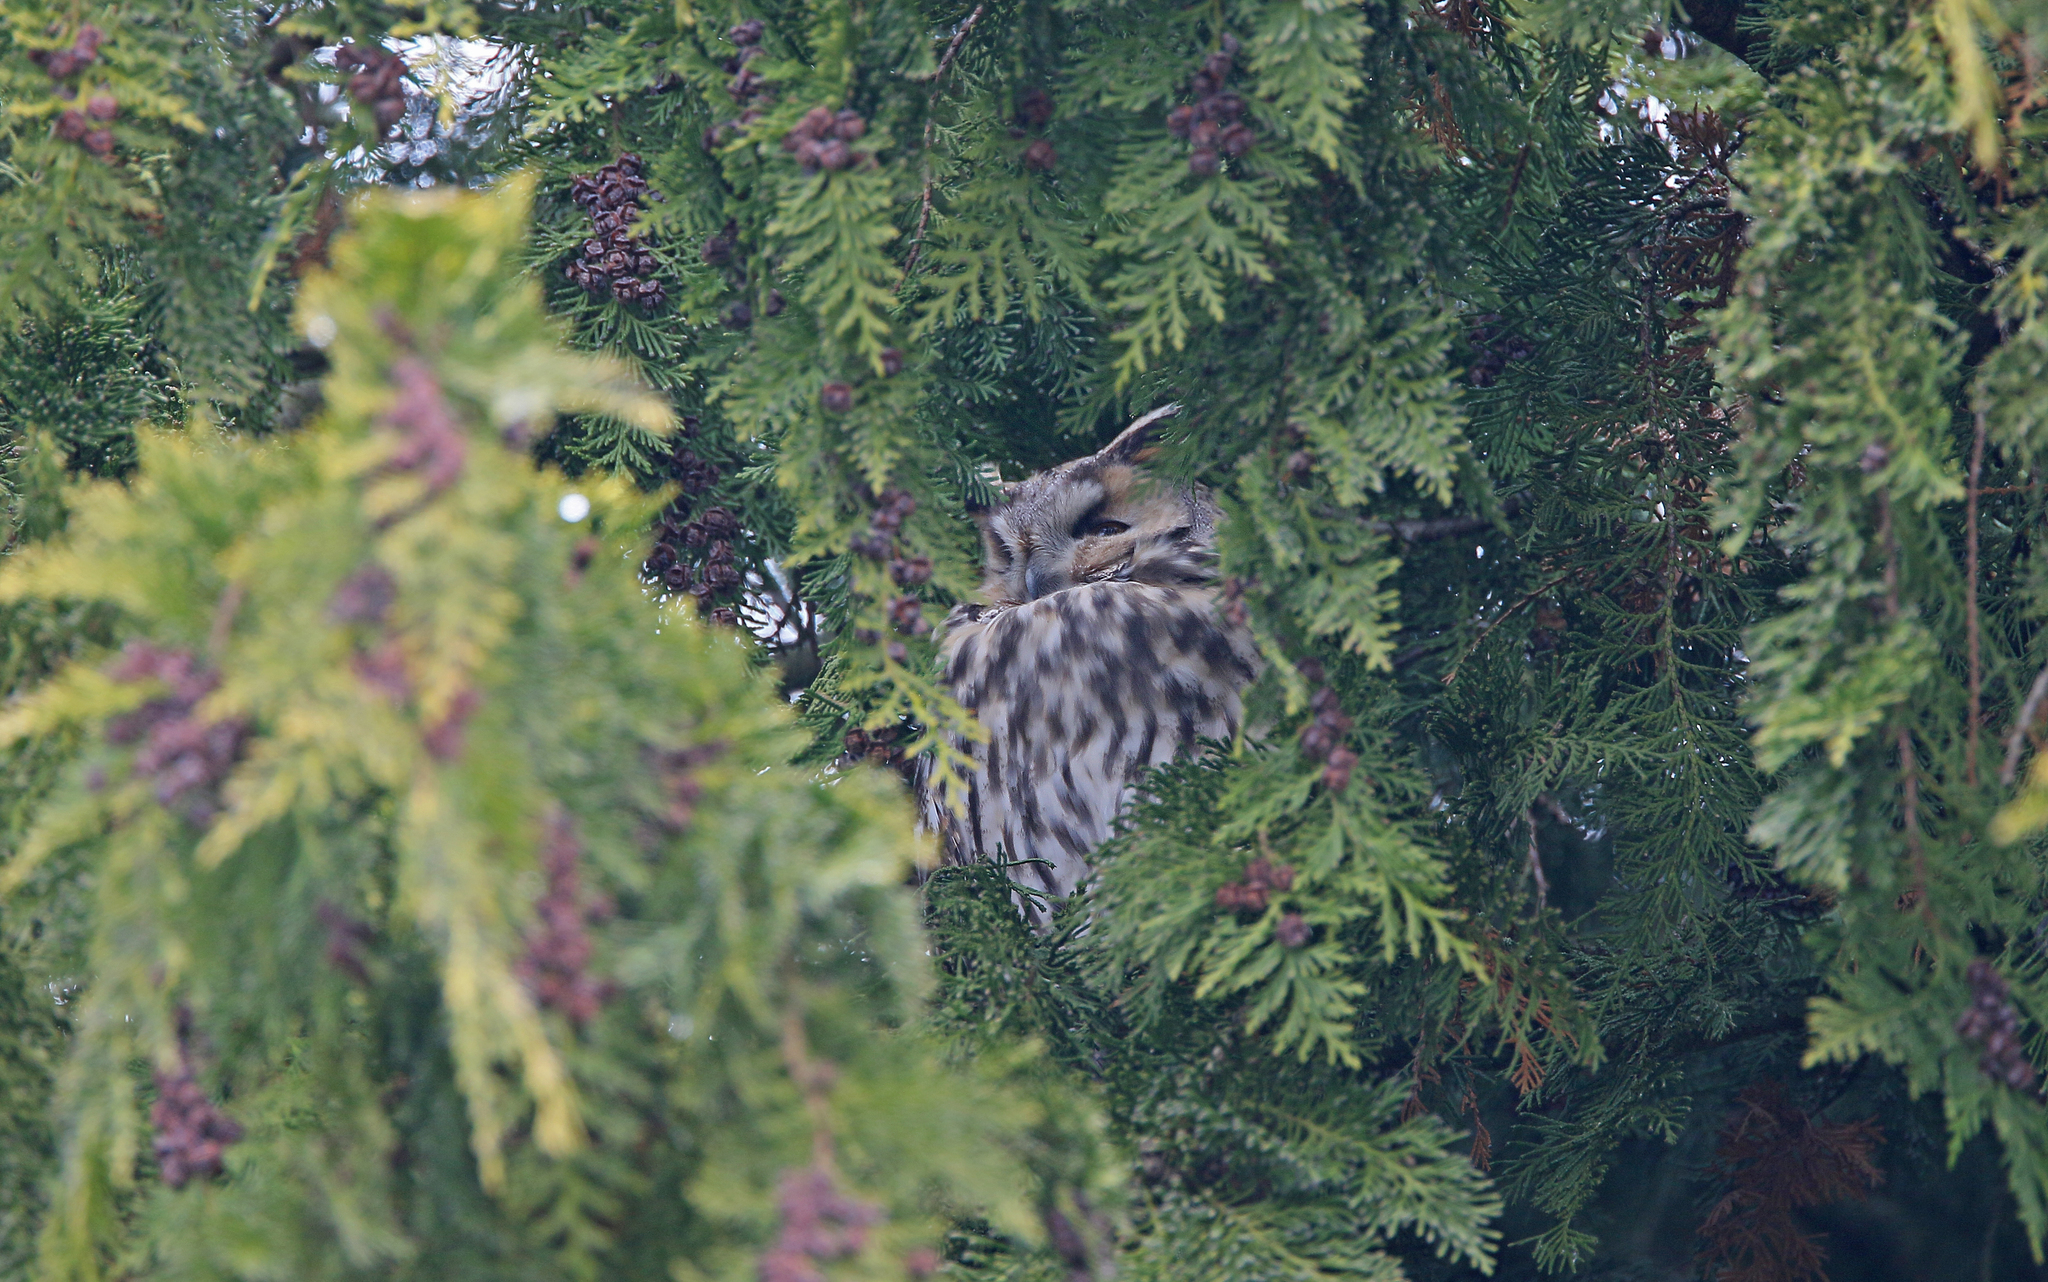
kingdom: Animalia
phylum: Chordata
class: Aves
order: Strigiformes
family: Strigidae
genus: Asio
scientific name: Asio otus
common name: Long-eared owl
